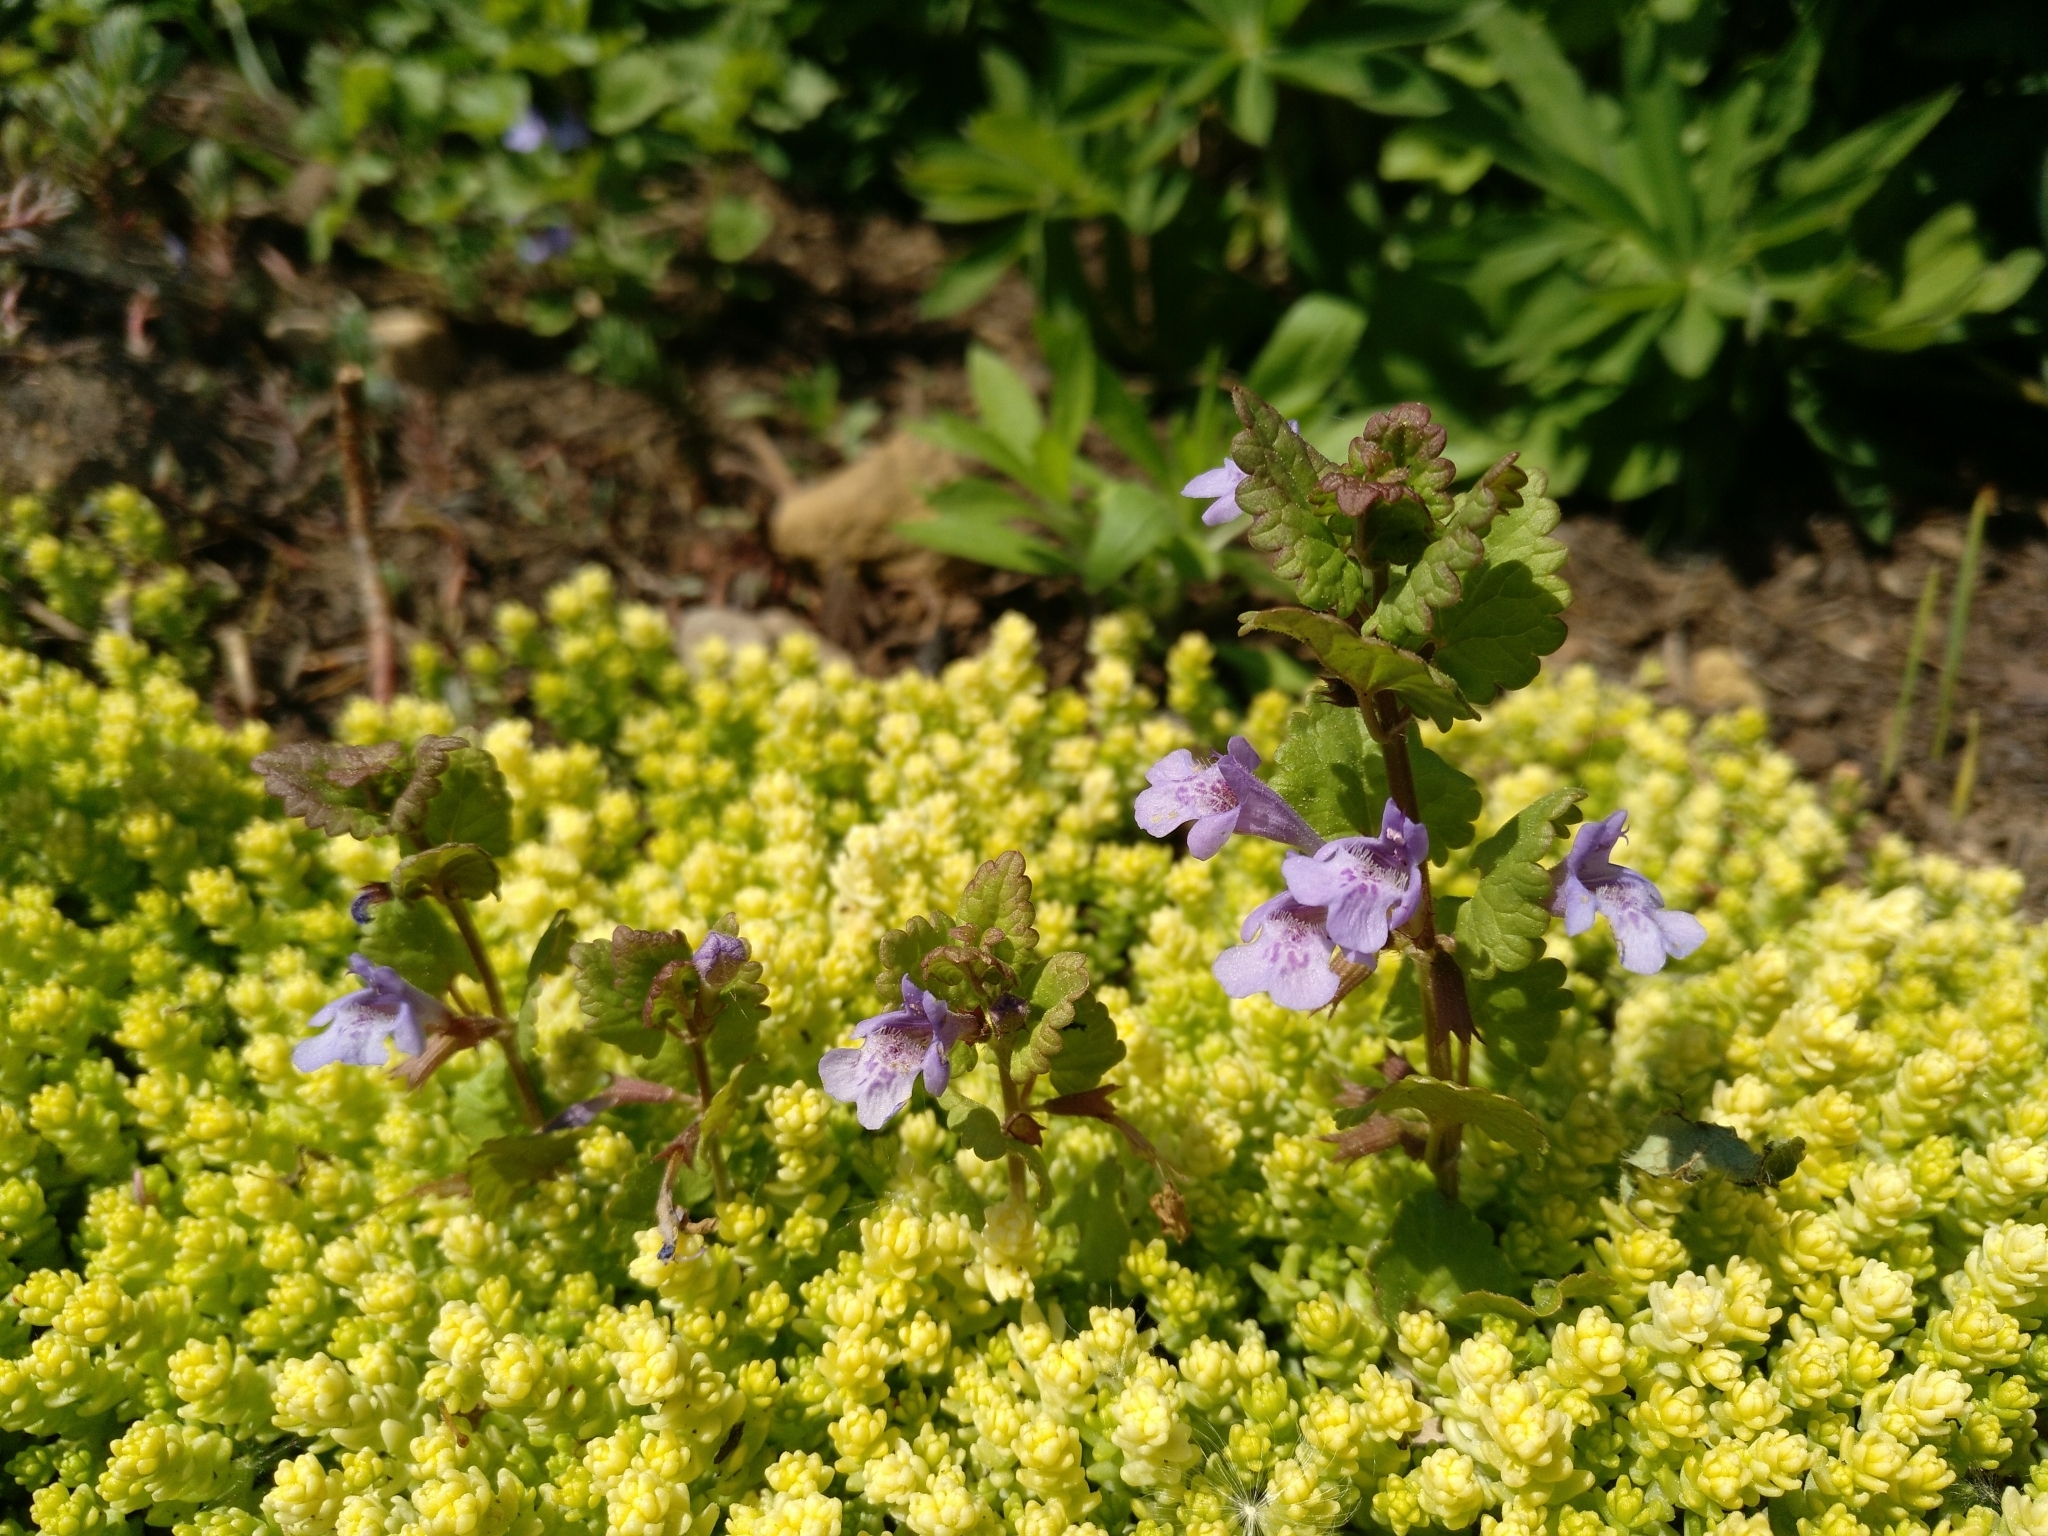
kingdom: Plantae
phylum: Tracheophyta
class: Magnoliopsida
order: Lamiales
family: Lamiaceae
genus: Glechoma
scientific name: Glechoma hederacea
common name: Ground ivy
